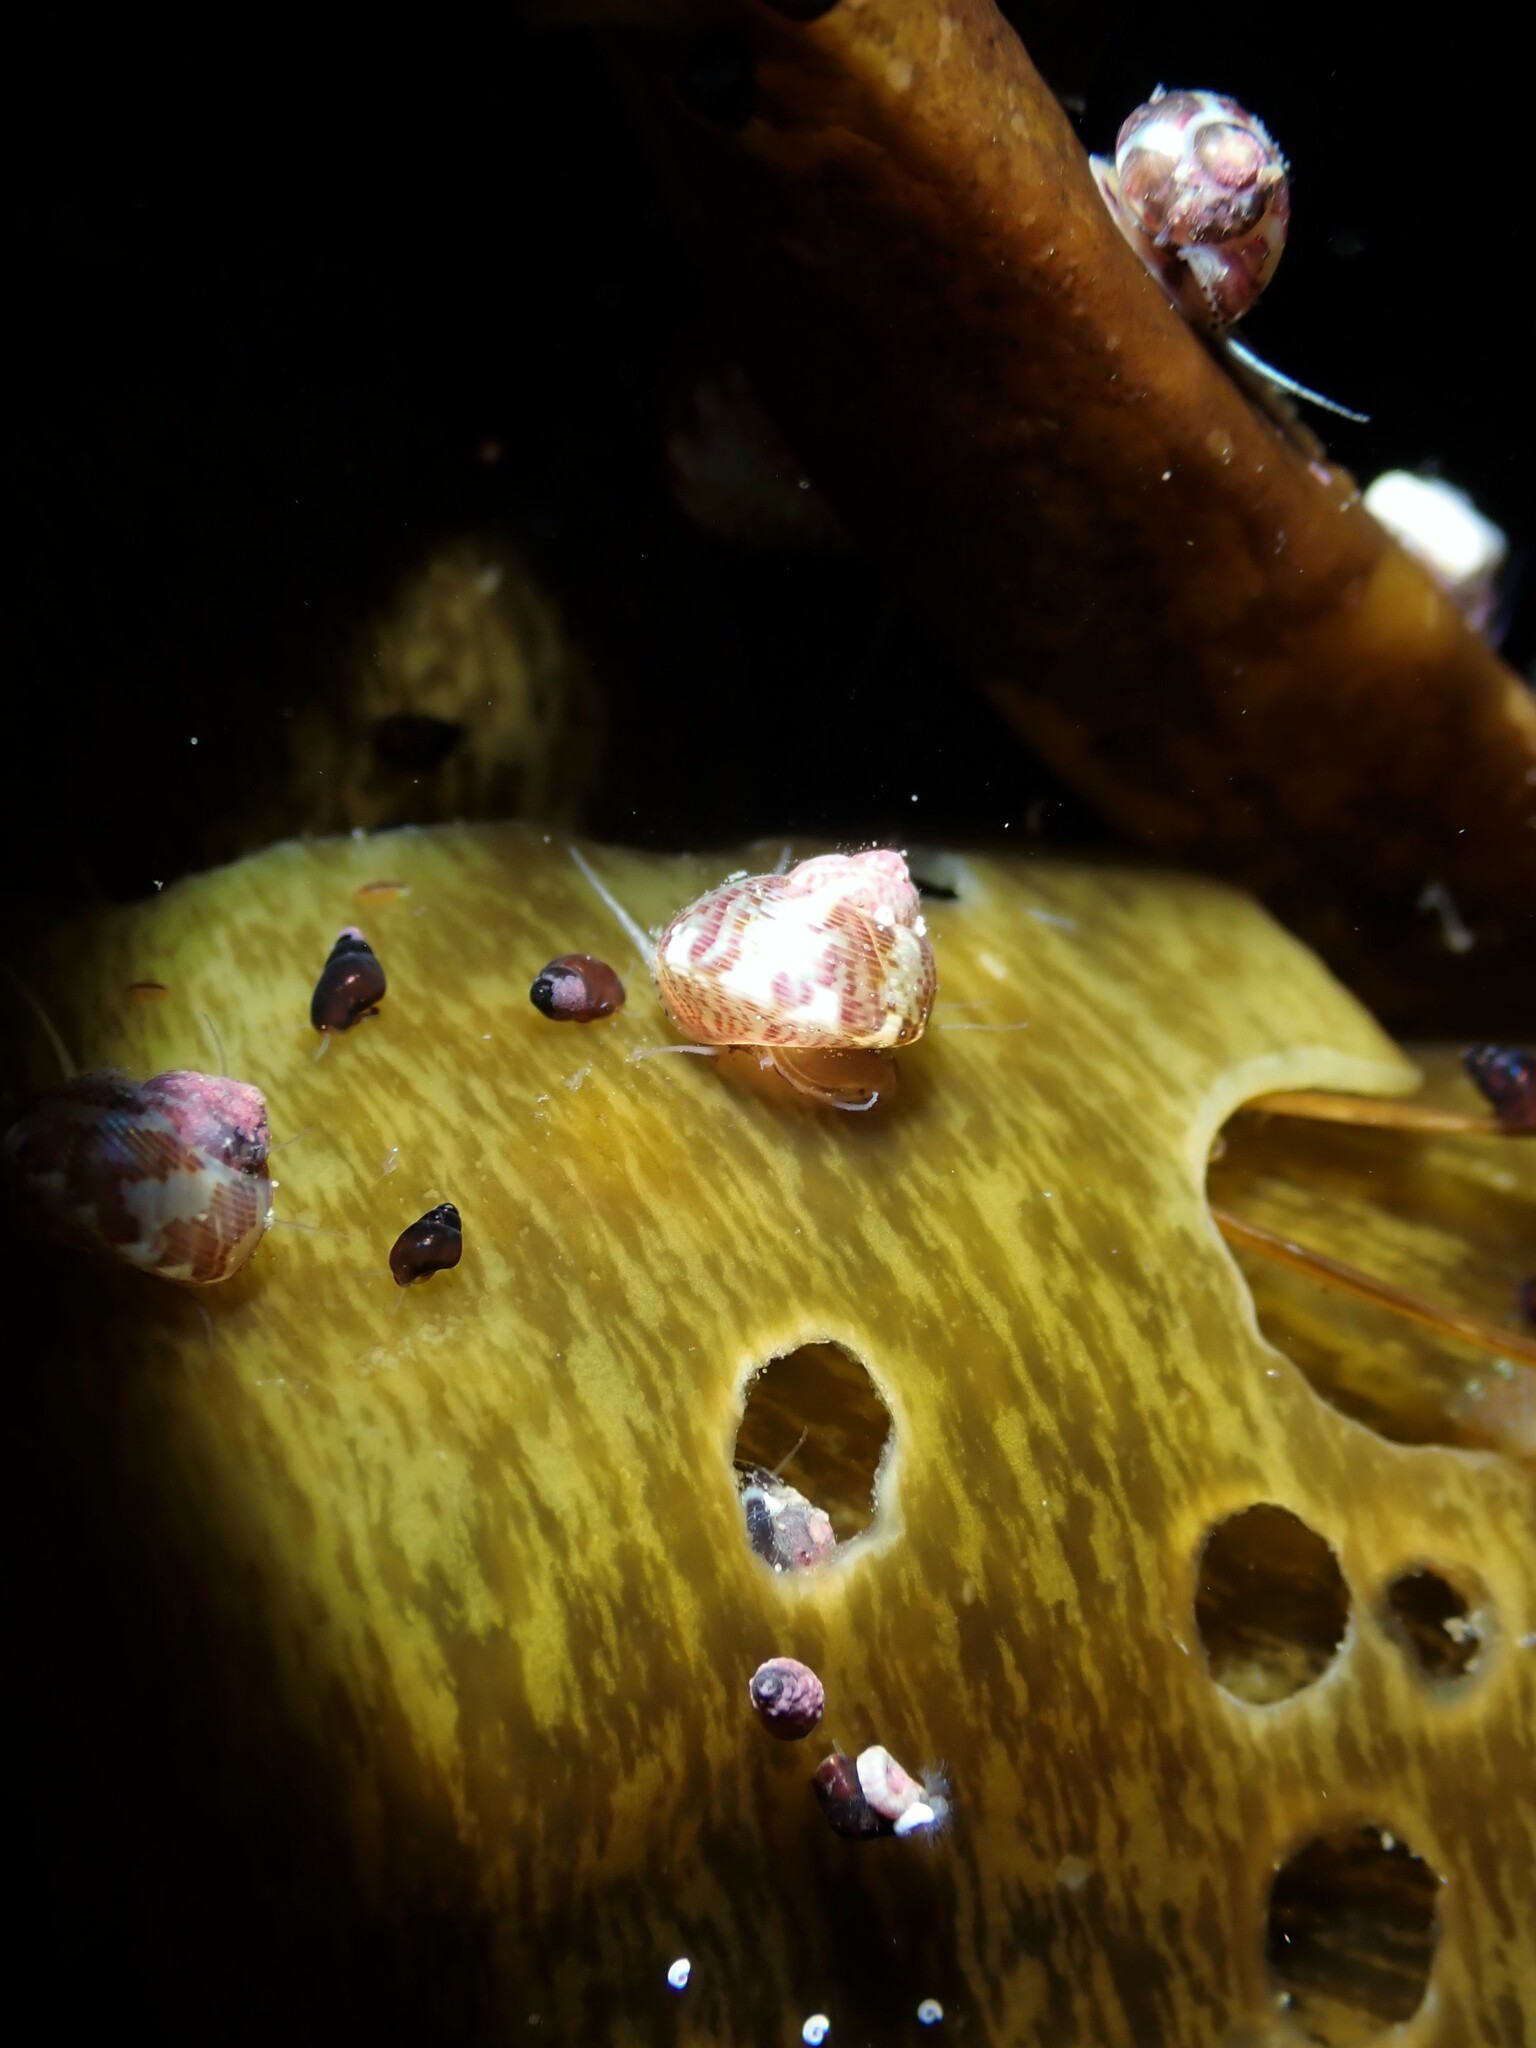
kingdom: Animalia
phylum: Mollusca
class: Gastropoda
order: Trochida
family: Trochidae
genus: Micrelenchus
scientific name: Micrelenchus tessellatus
